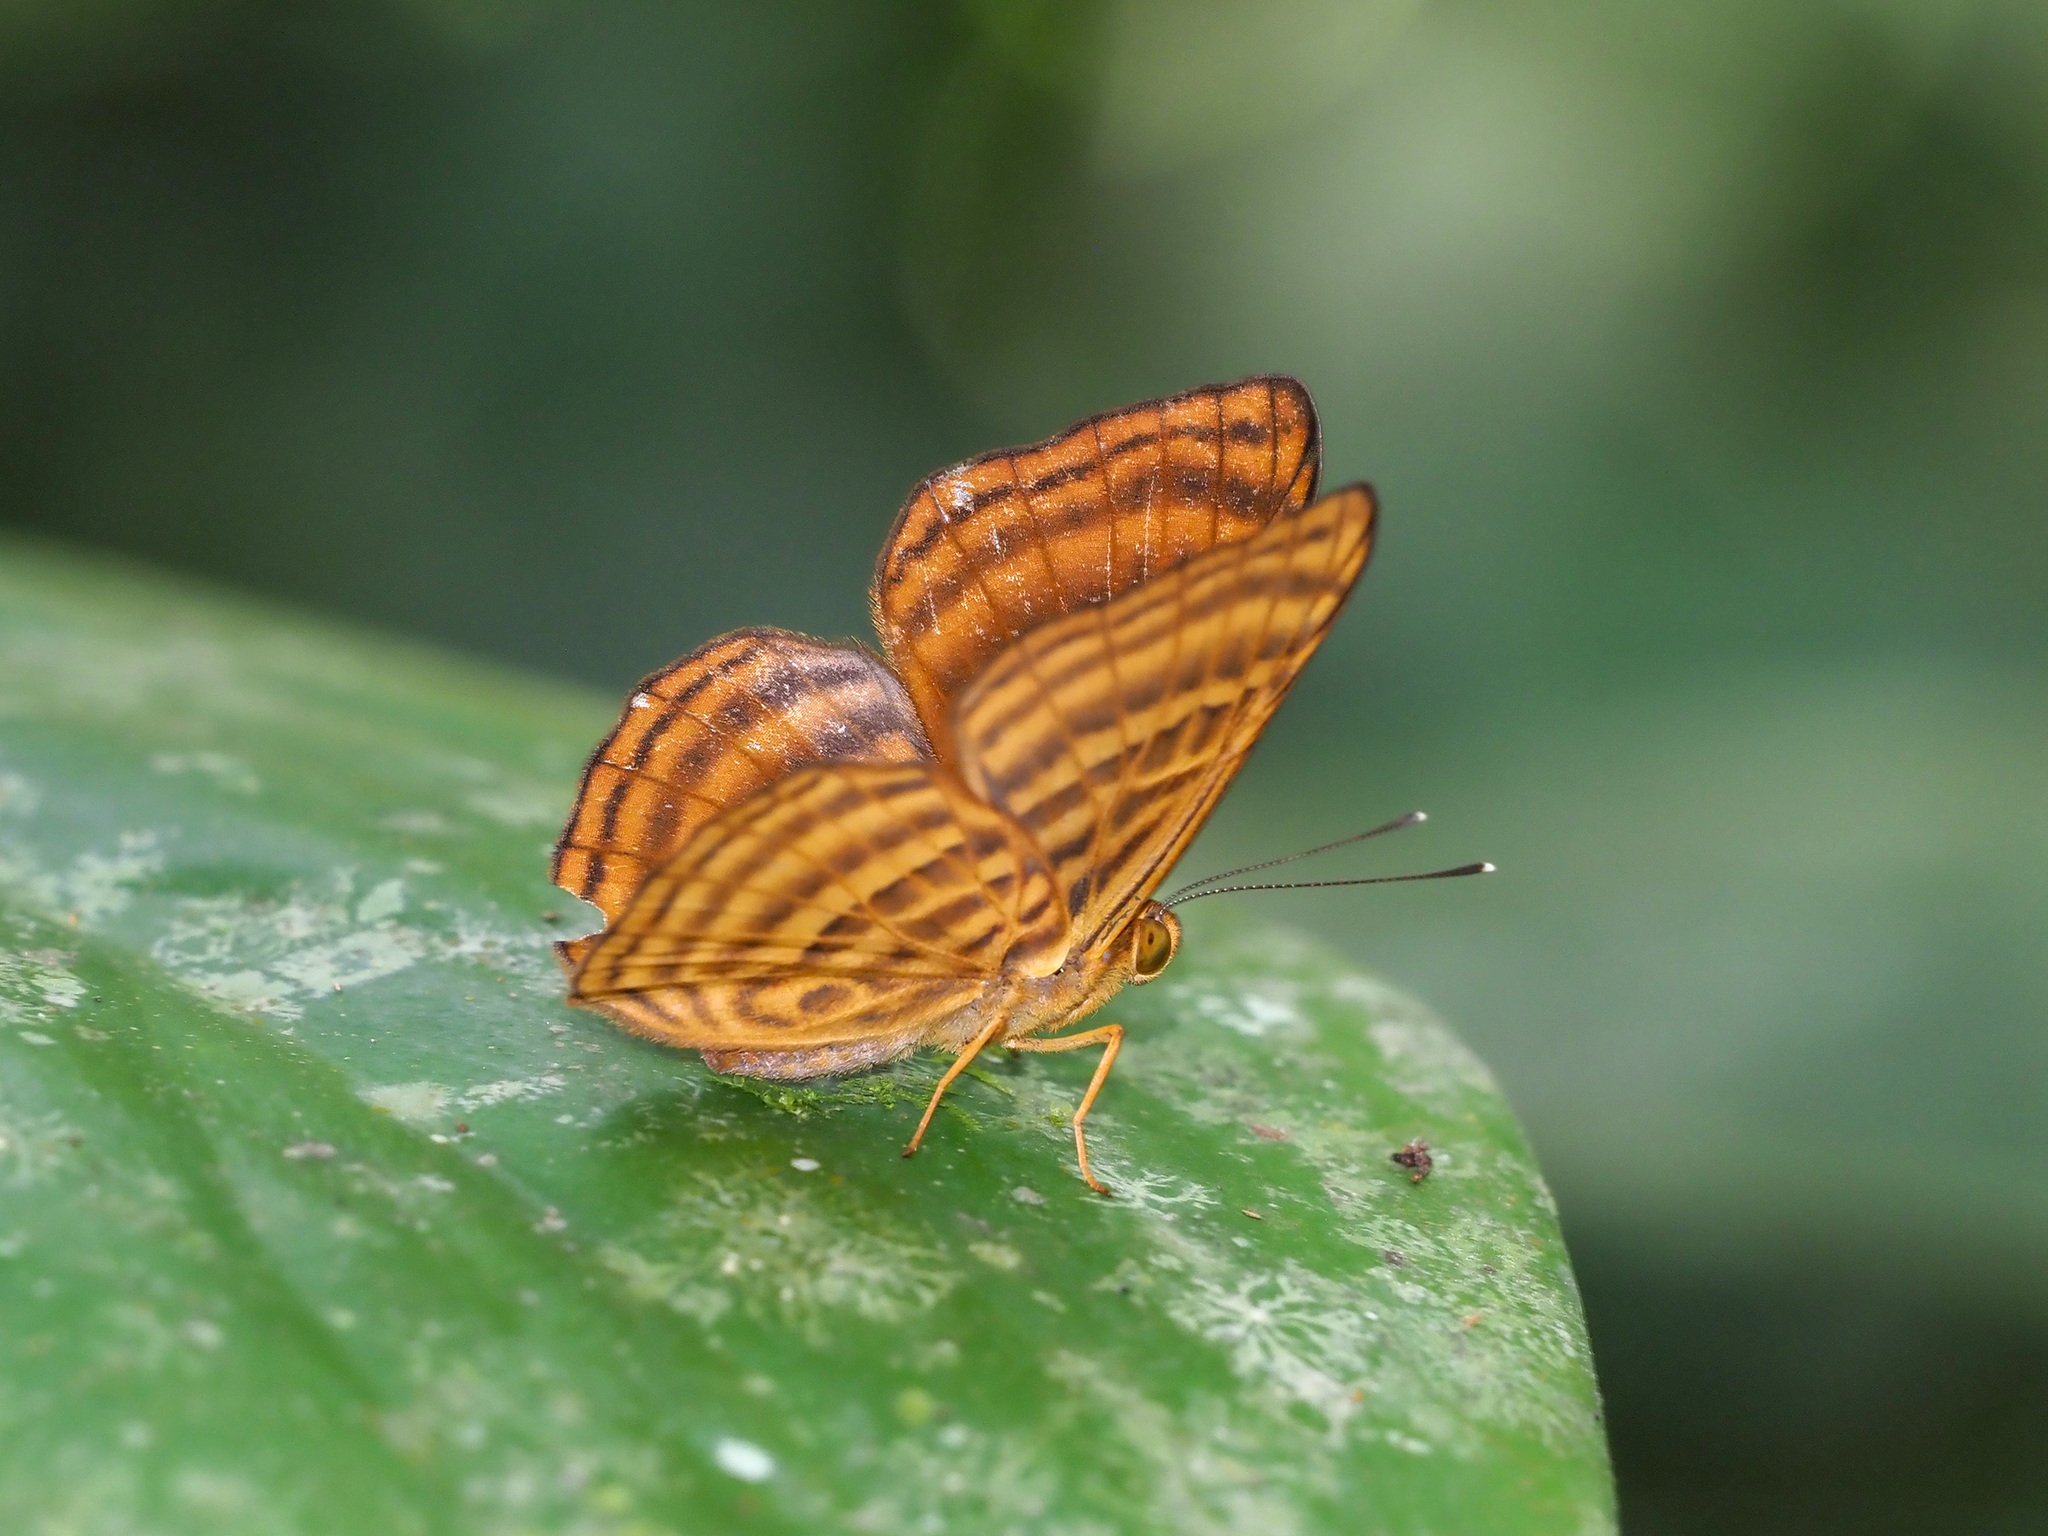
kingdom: Animalia
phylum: Arthropoda
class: Insecta
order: Lepidoptera
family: Riodinidae
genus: Zemeros
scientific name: Zemeros emesoides
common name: Malay punchinello
